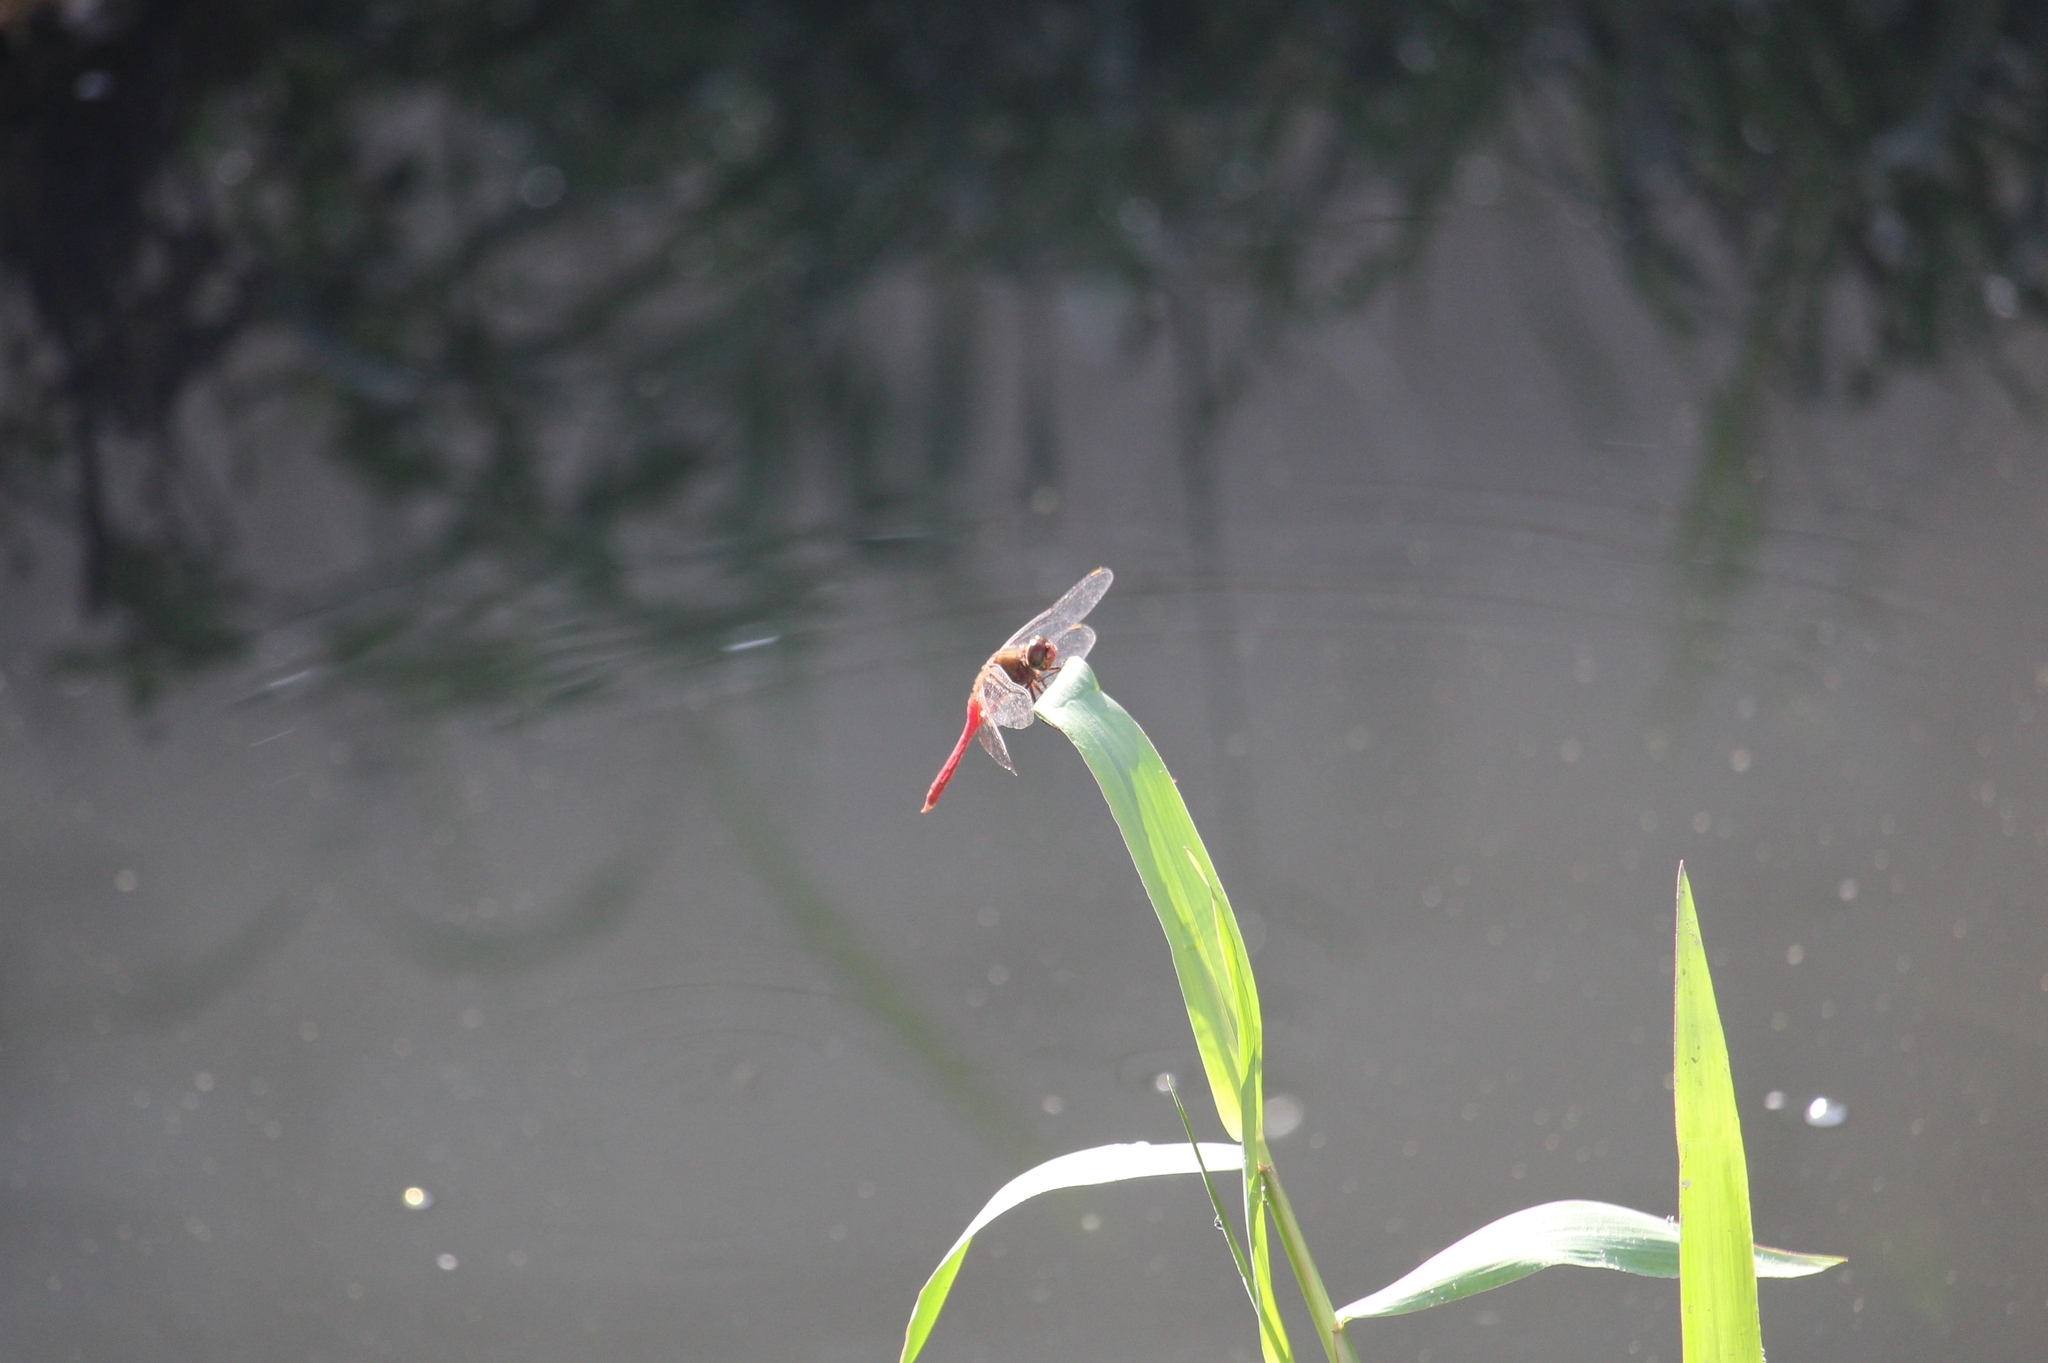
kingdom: Animalia
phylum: Arthropoda
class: Insecta
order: Odonata
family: Libellulidae
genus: Brachymesia
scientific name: Brachymesia furcata
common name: Red-taled pennant
